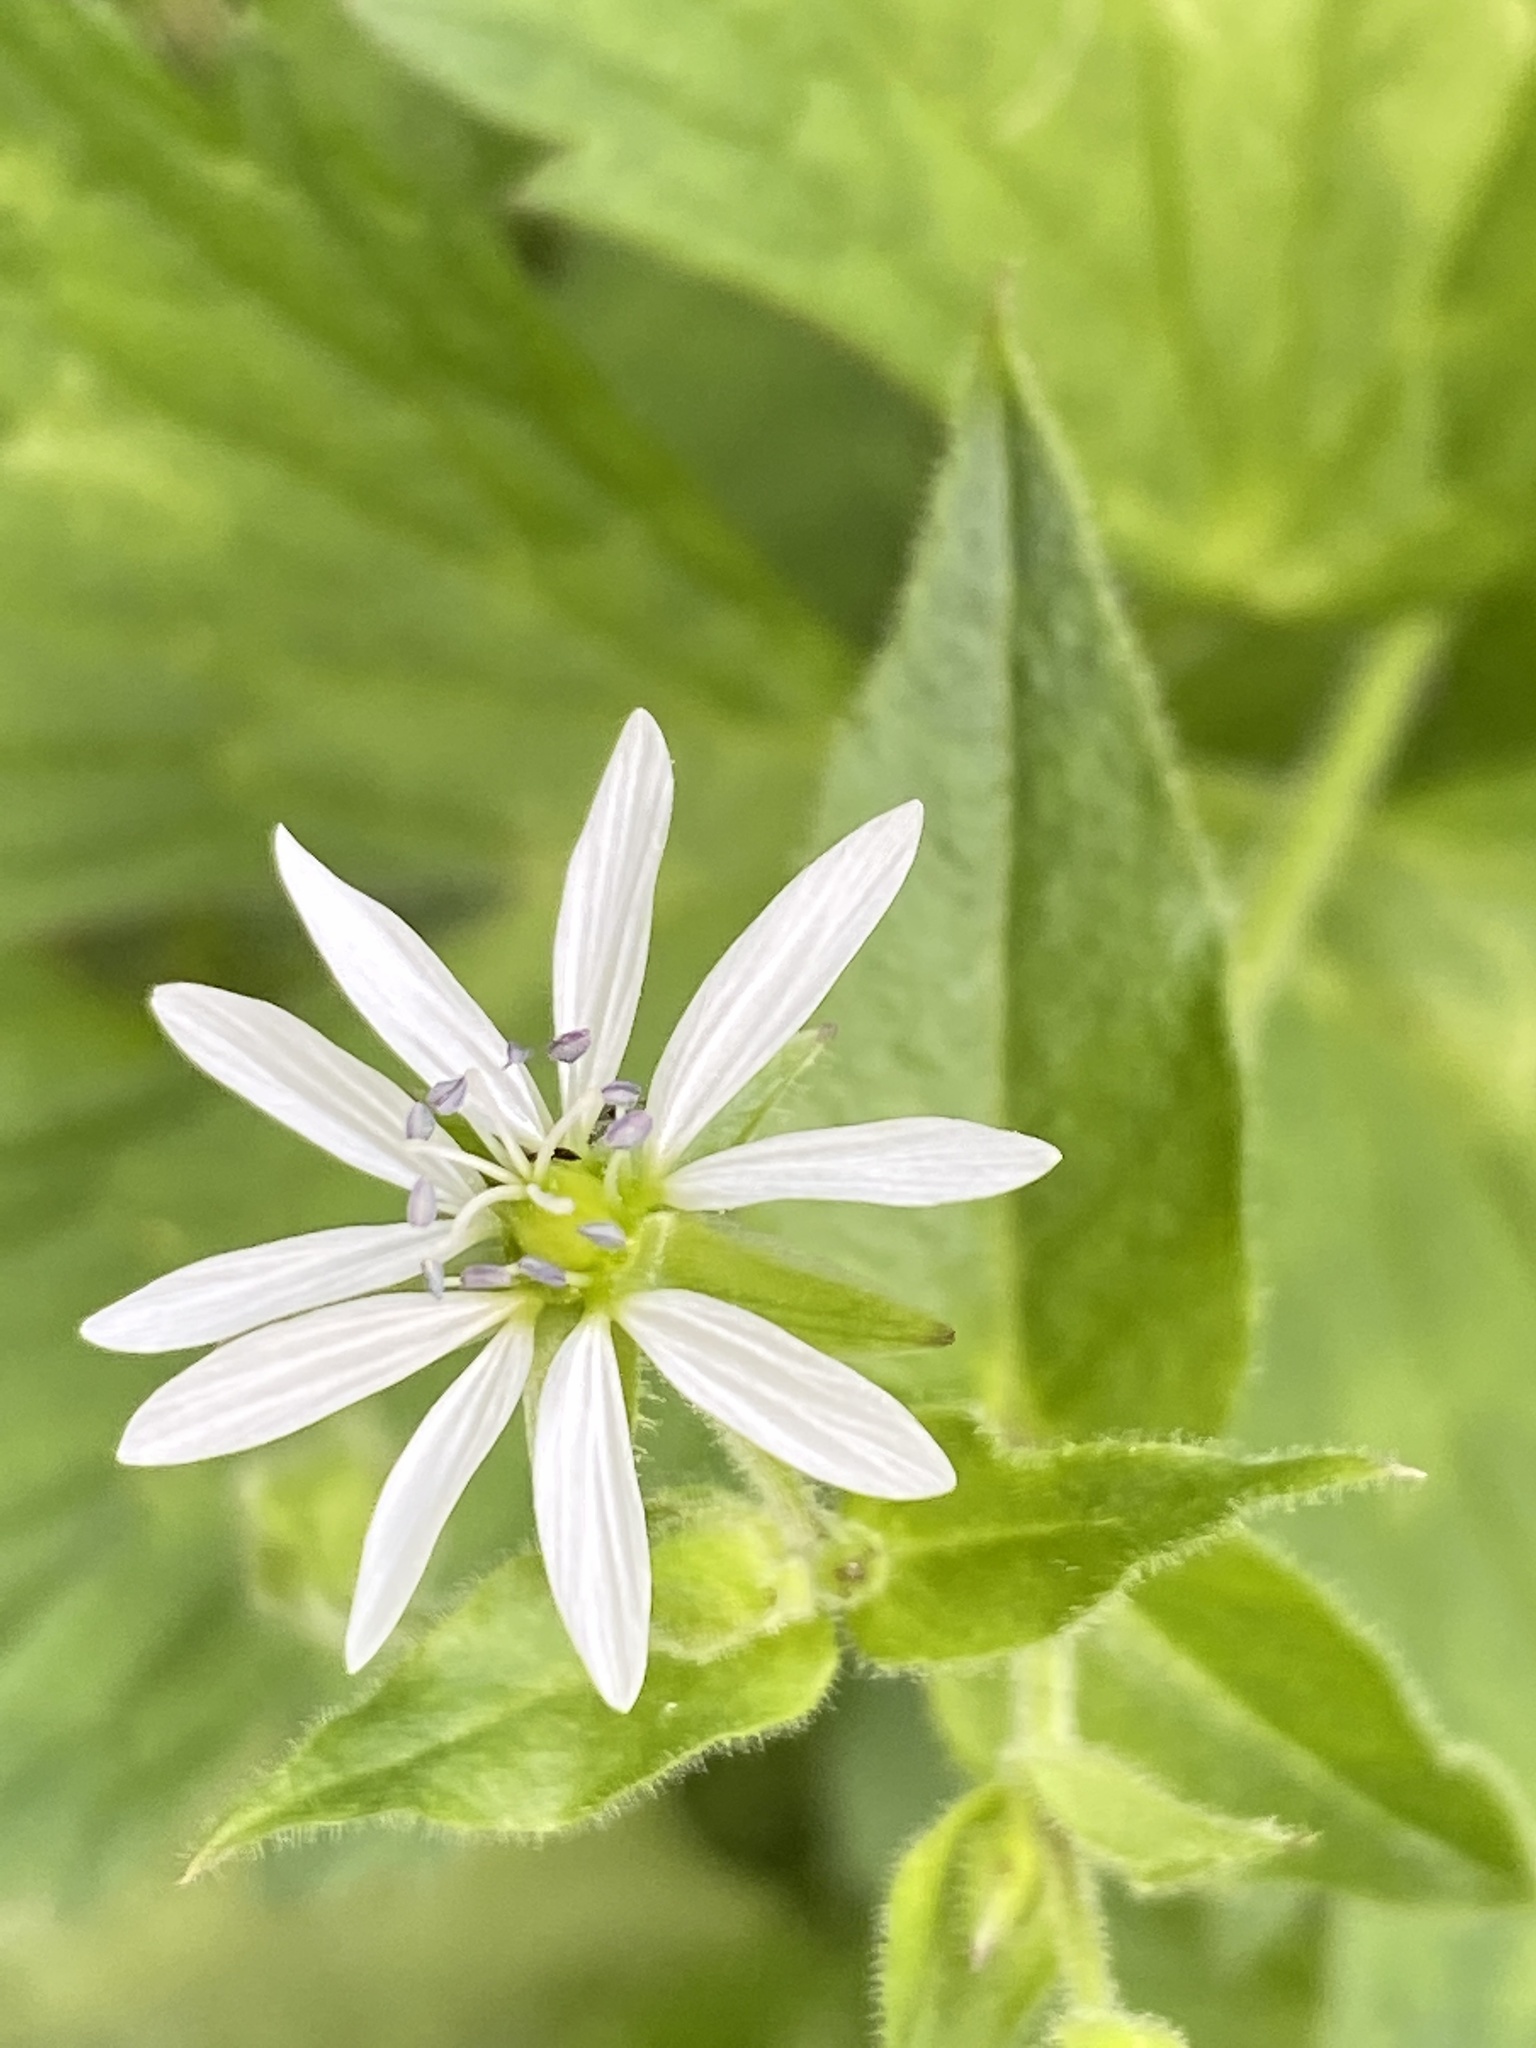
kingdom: Plantae
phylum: Tracheophyta
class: Magnoliopsida
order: Caryophyllales
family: Caryophyllaceae
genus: Stellaria
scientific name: Stellaria aquatica
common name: Water chickweed
